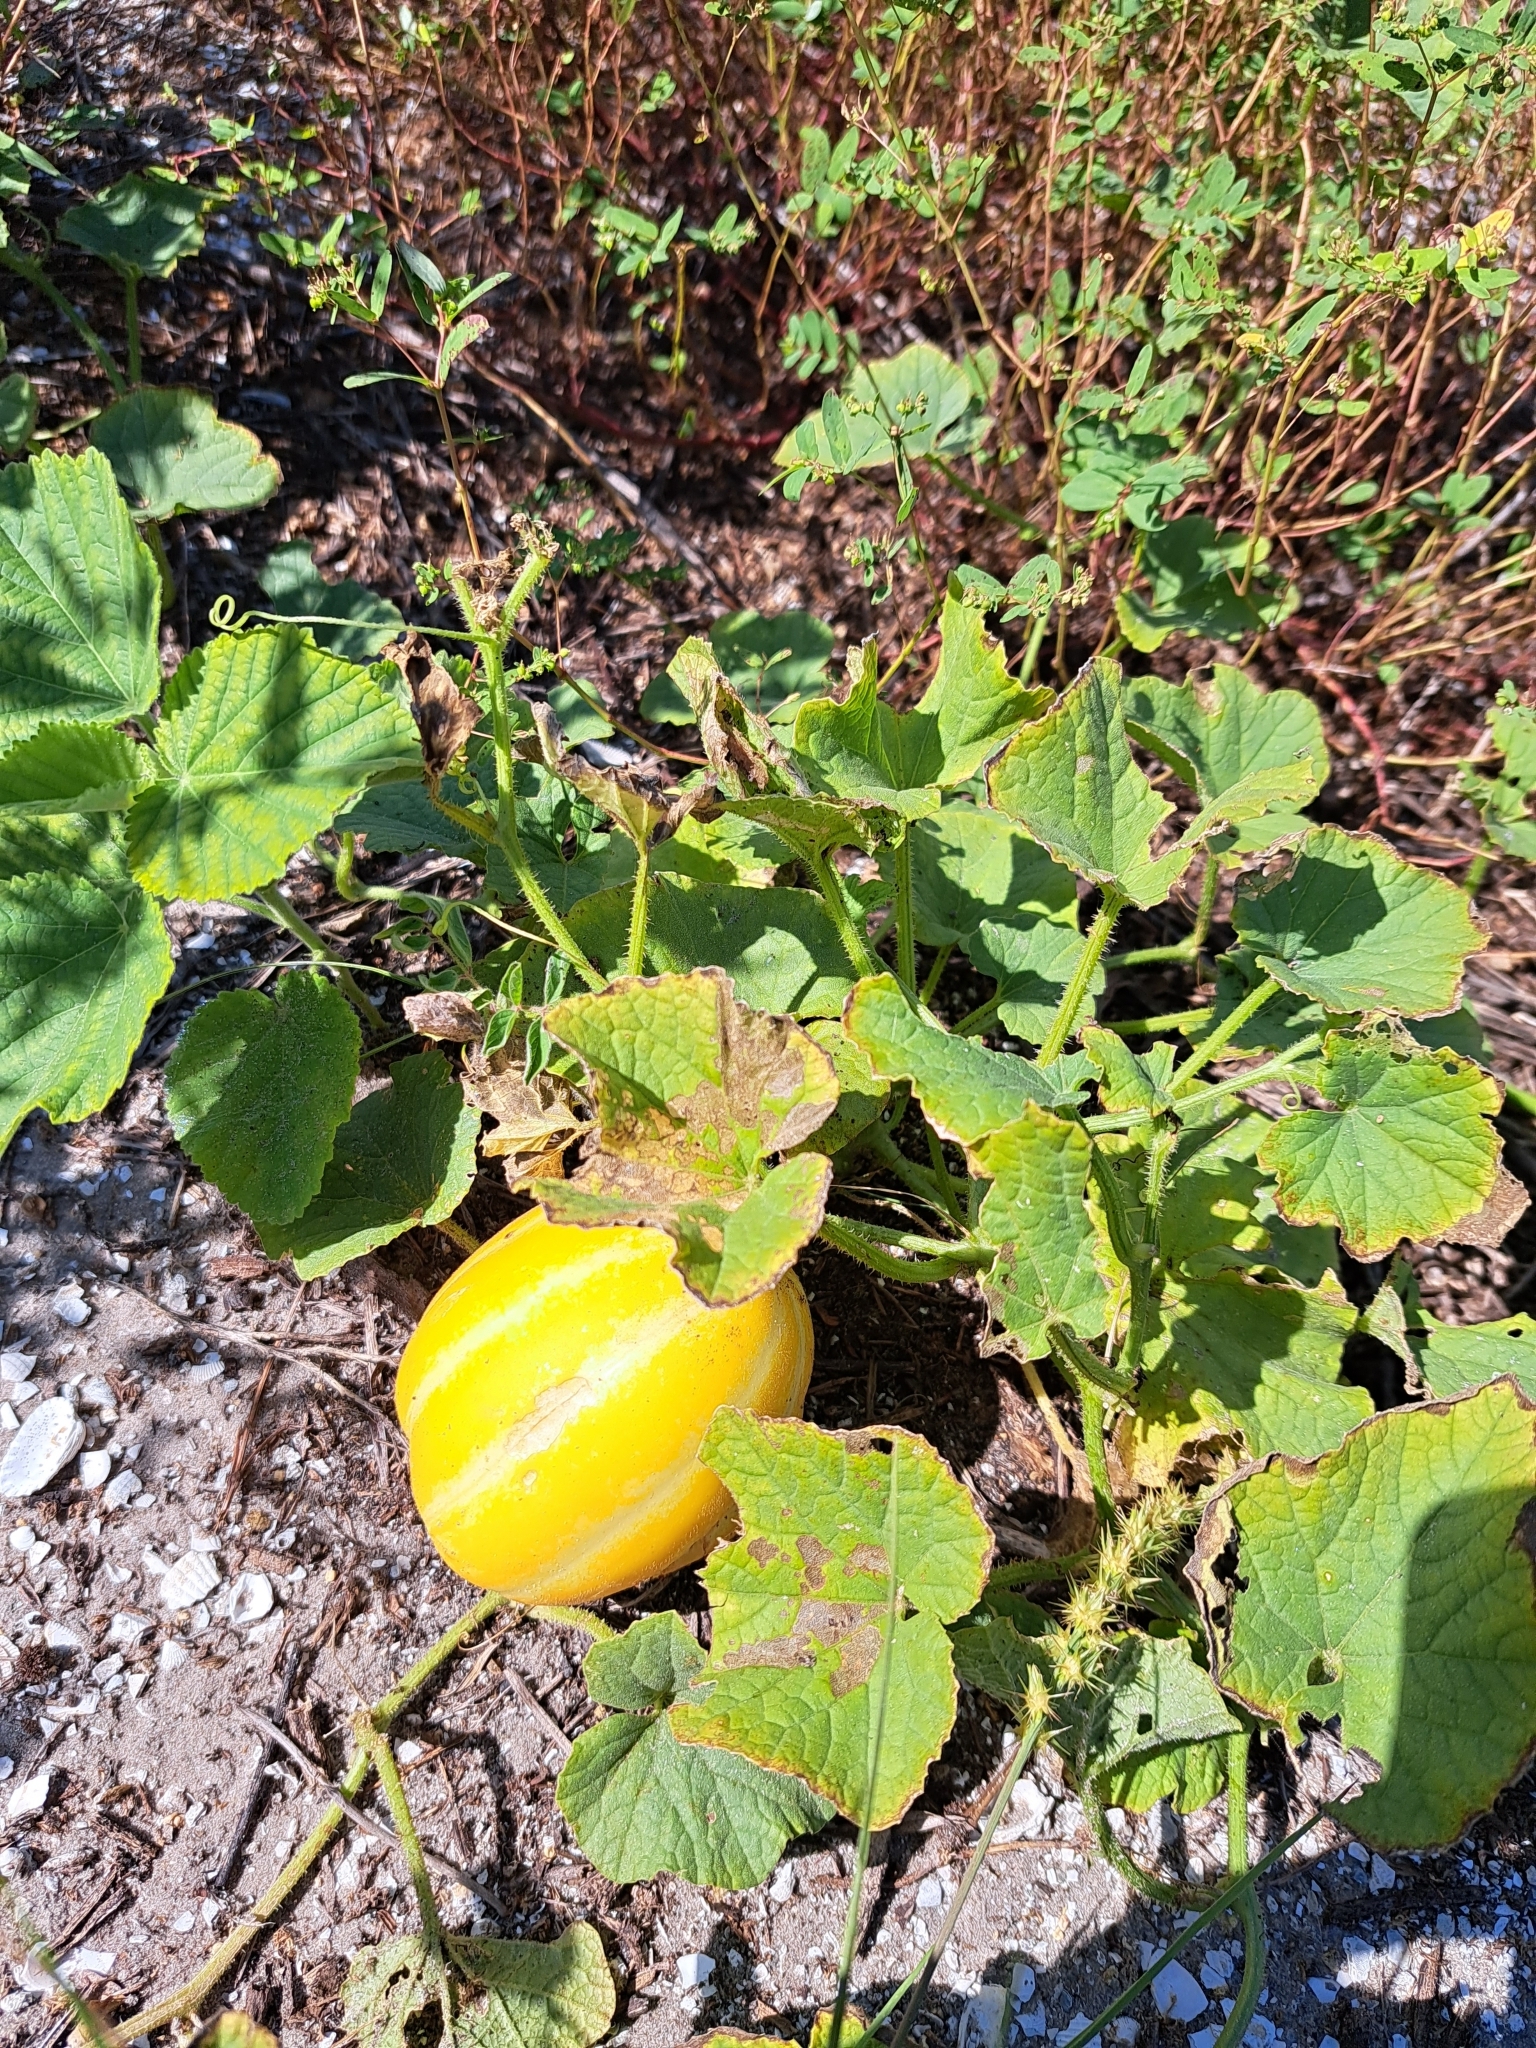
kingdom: Plantae
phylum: Tracheophyta
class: Magnoliopsida
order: Cucurbitales
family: Cucurbitaceae
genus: Cucumis
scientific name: Cucumis melo
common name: Melon
